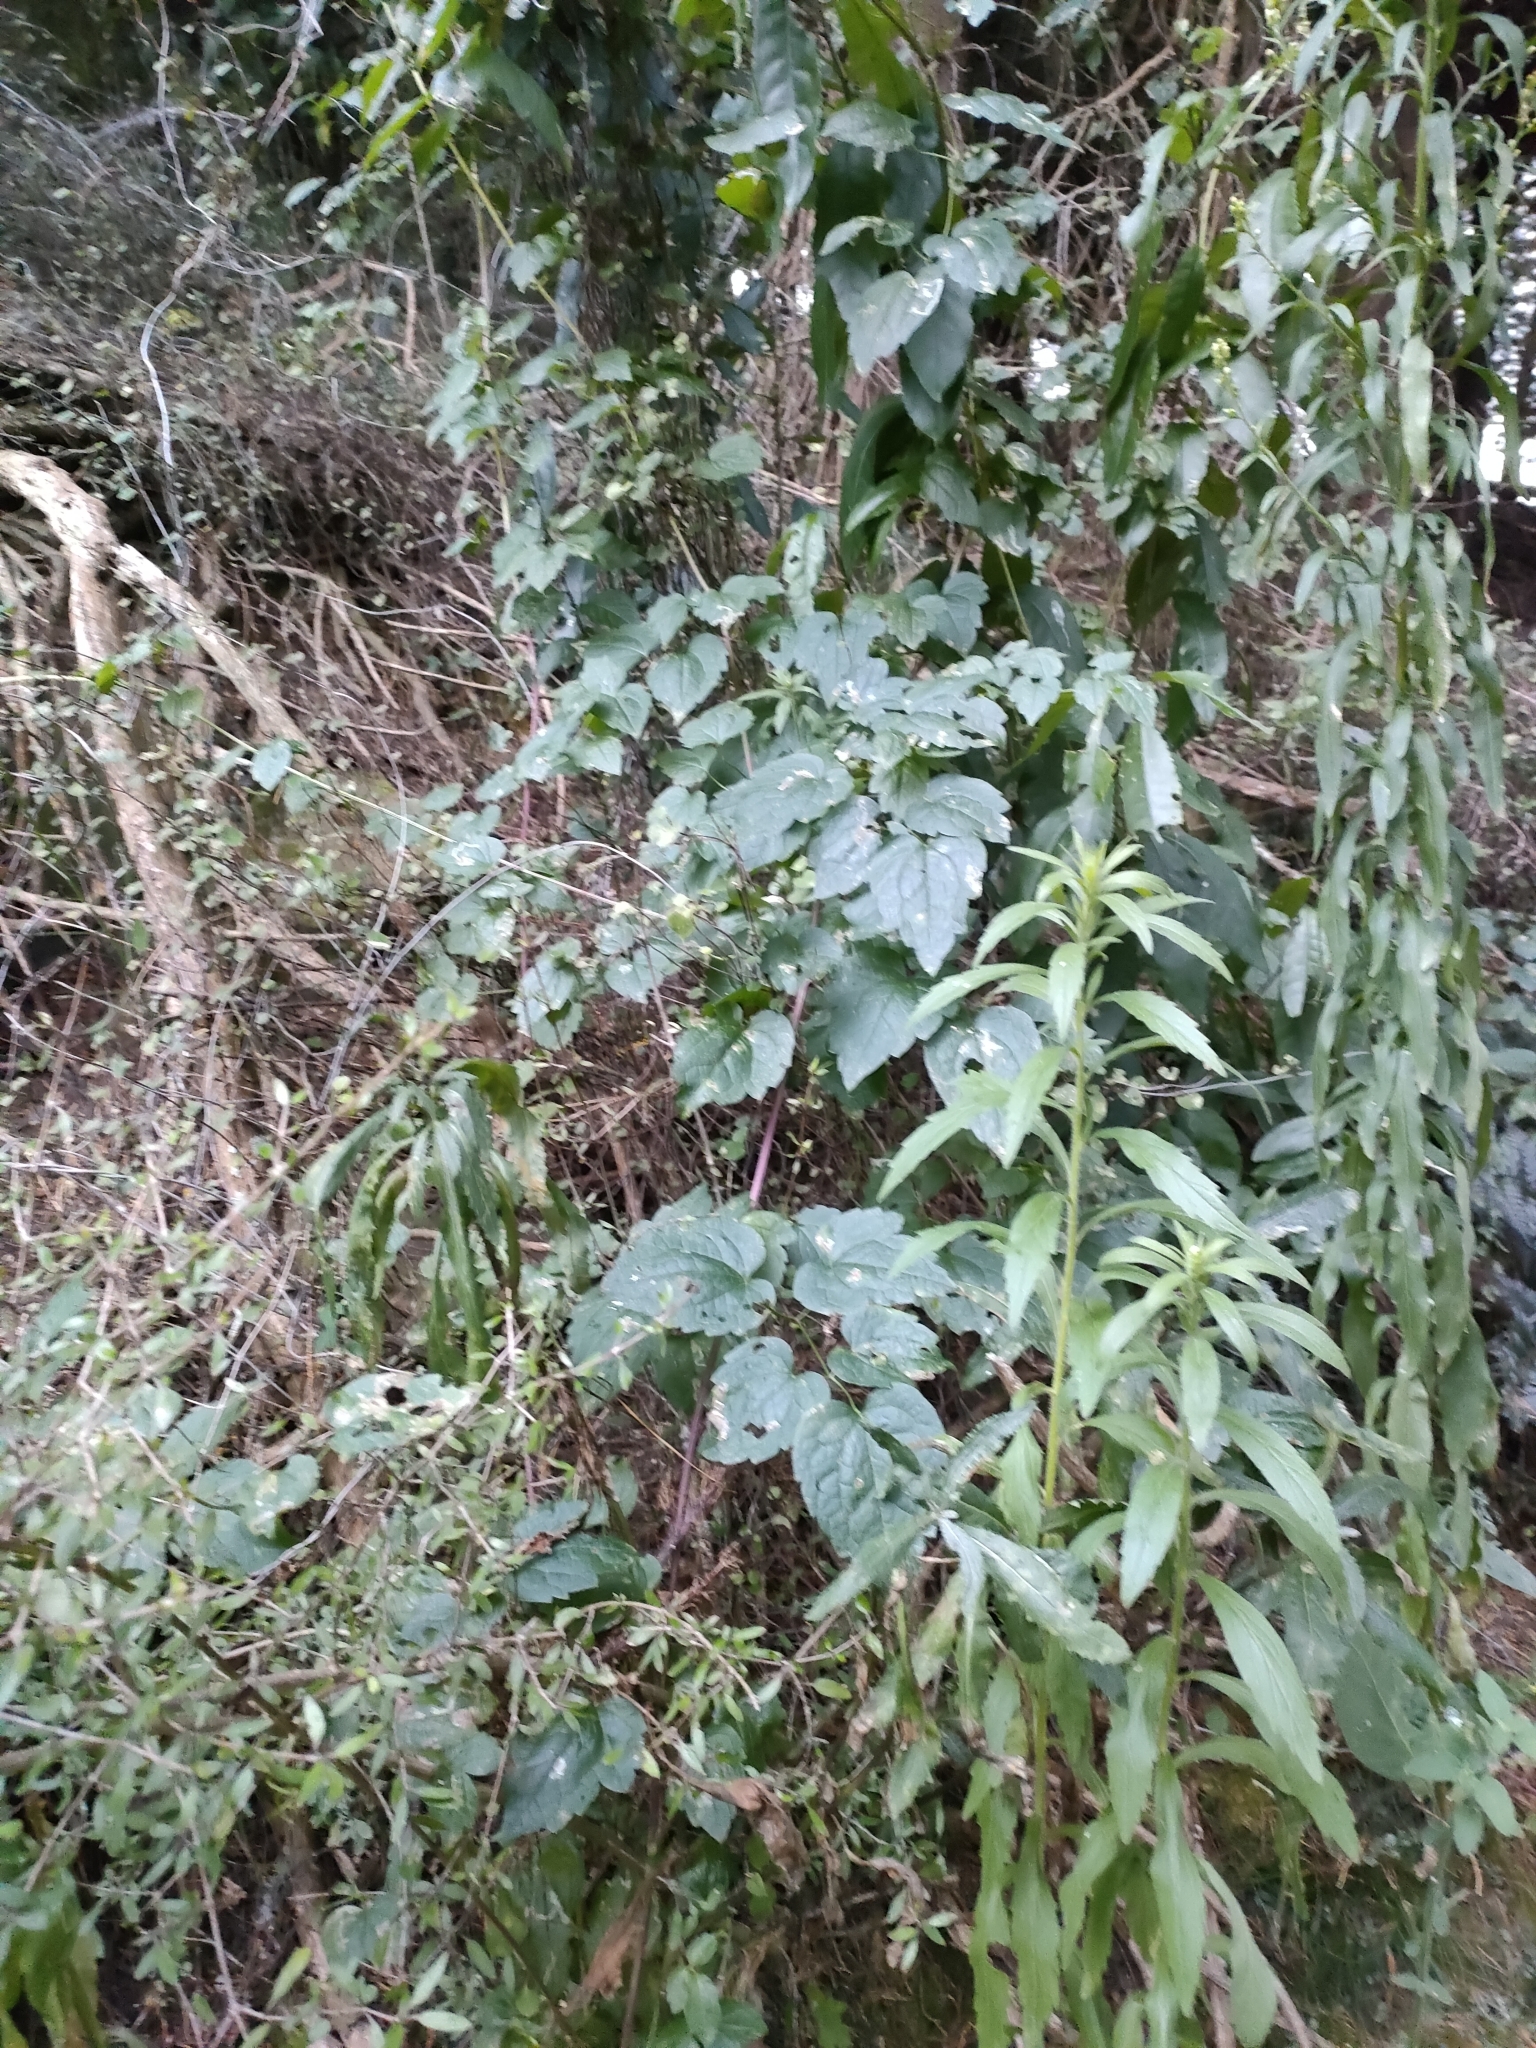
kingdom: Plantae
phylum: Tracheophyta
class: Magnoliopsida
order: Ranunculales
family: Ranunculaceae
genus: Clematis
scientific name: Clematis vitalba
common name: Evergreen clematis
